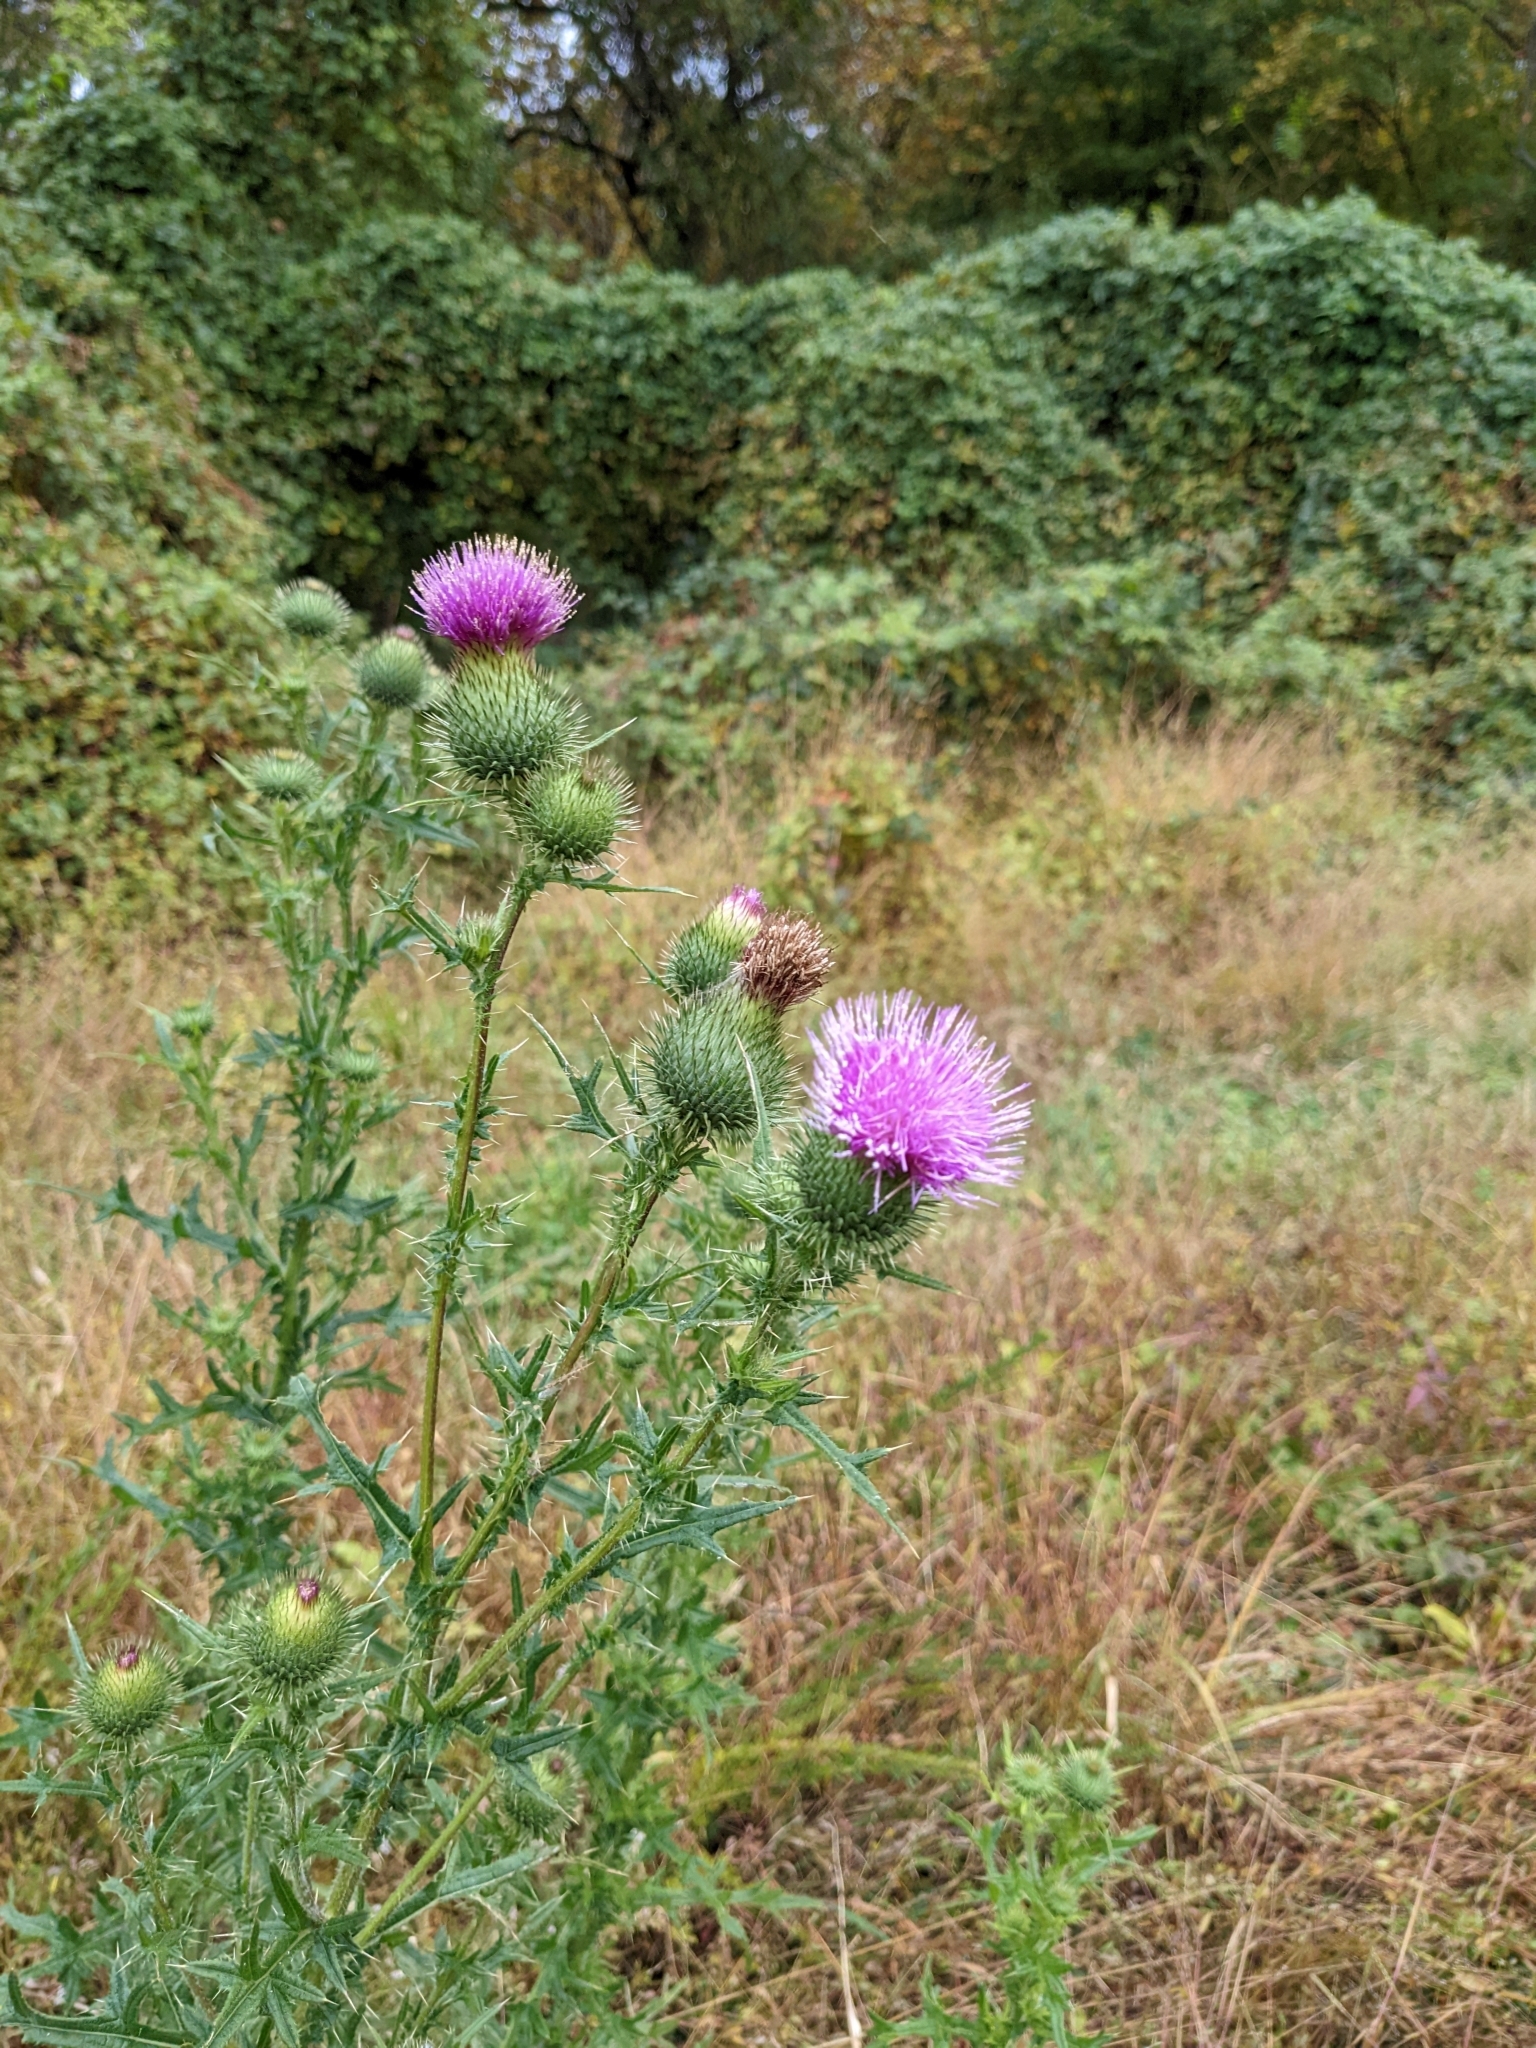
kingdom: Plantae
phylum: Tracheophyta
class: Magnoliopsida
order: Asterales
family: Asteraceae
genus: Cirsium
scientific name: Cirsium vulgare
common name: Bull thistle
